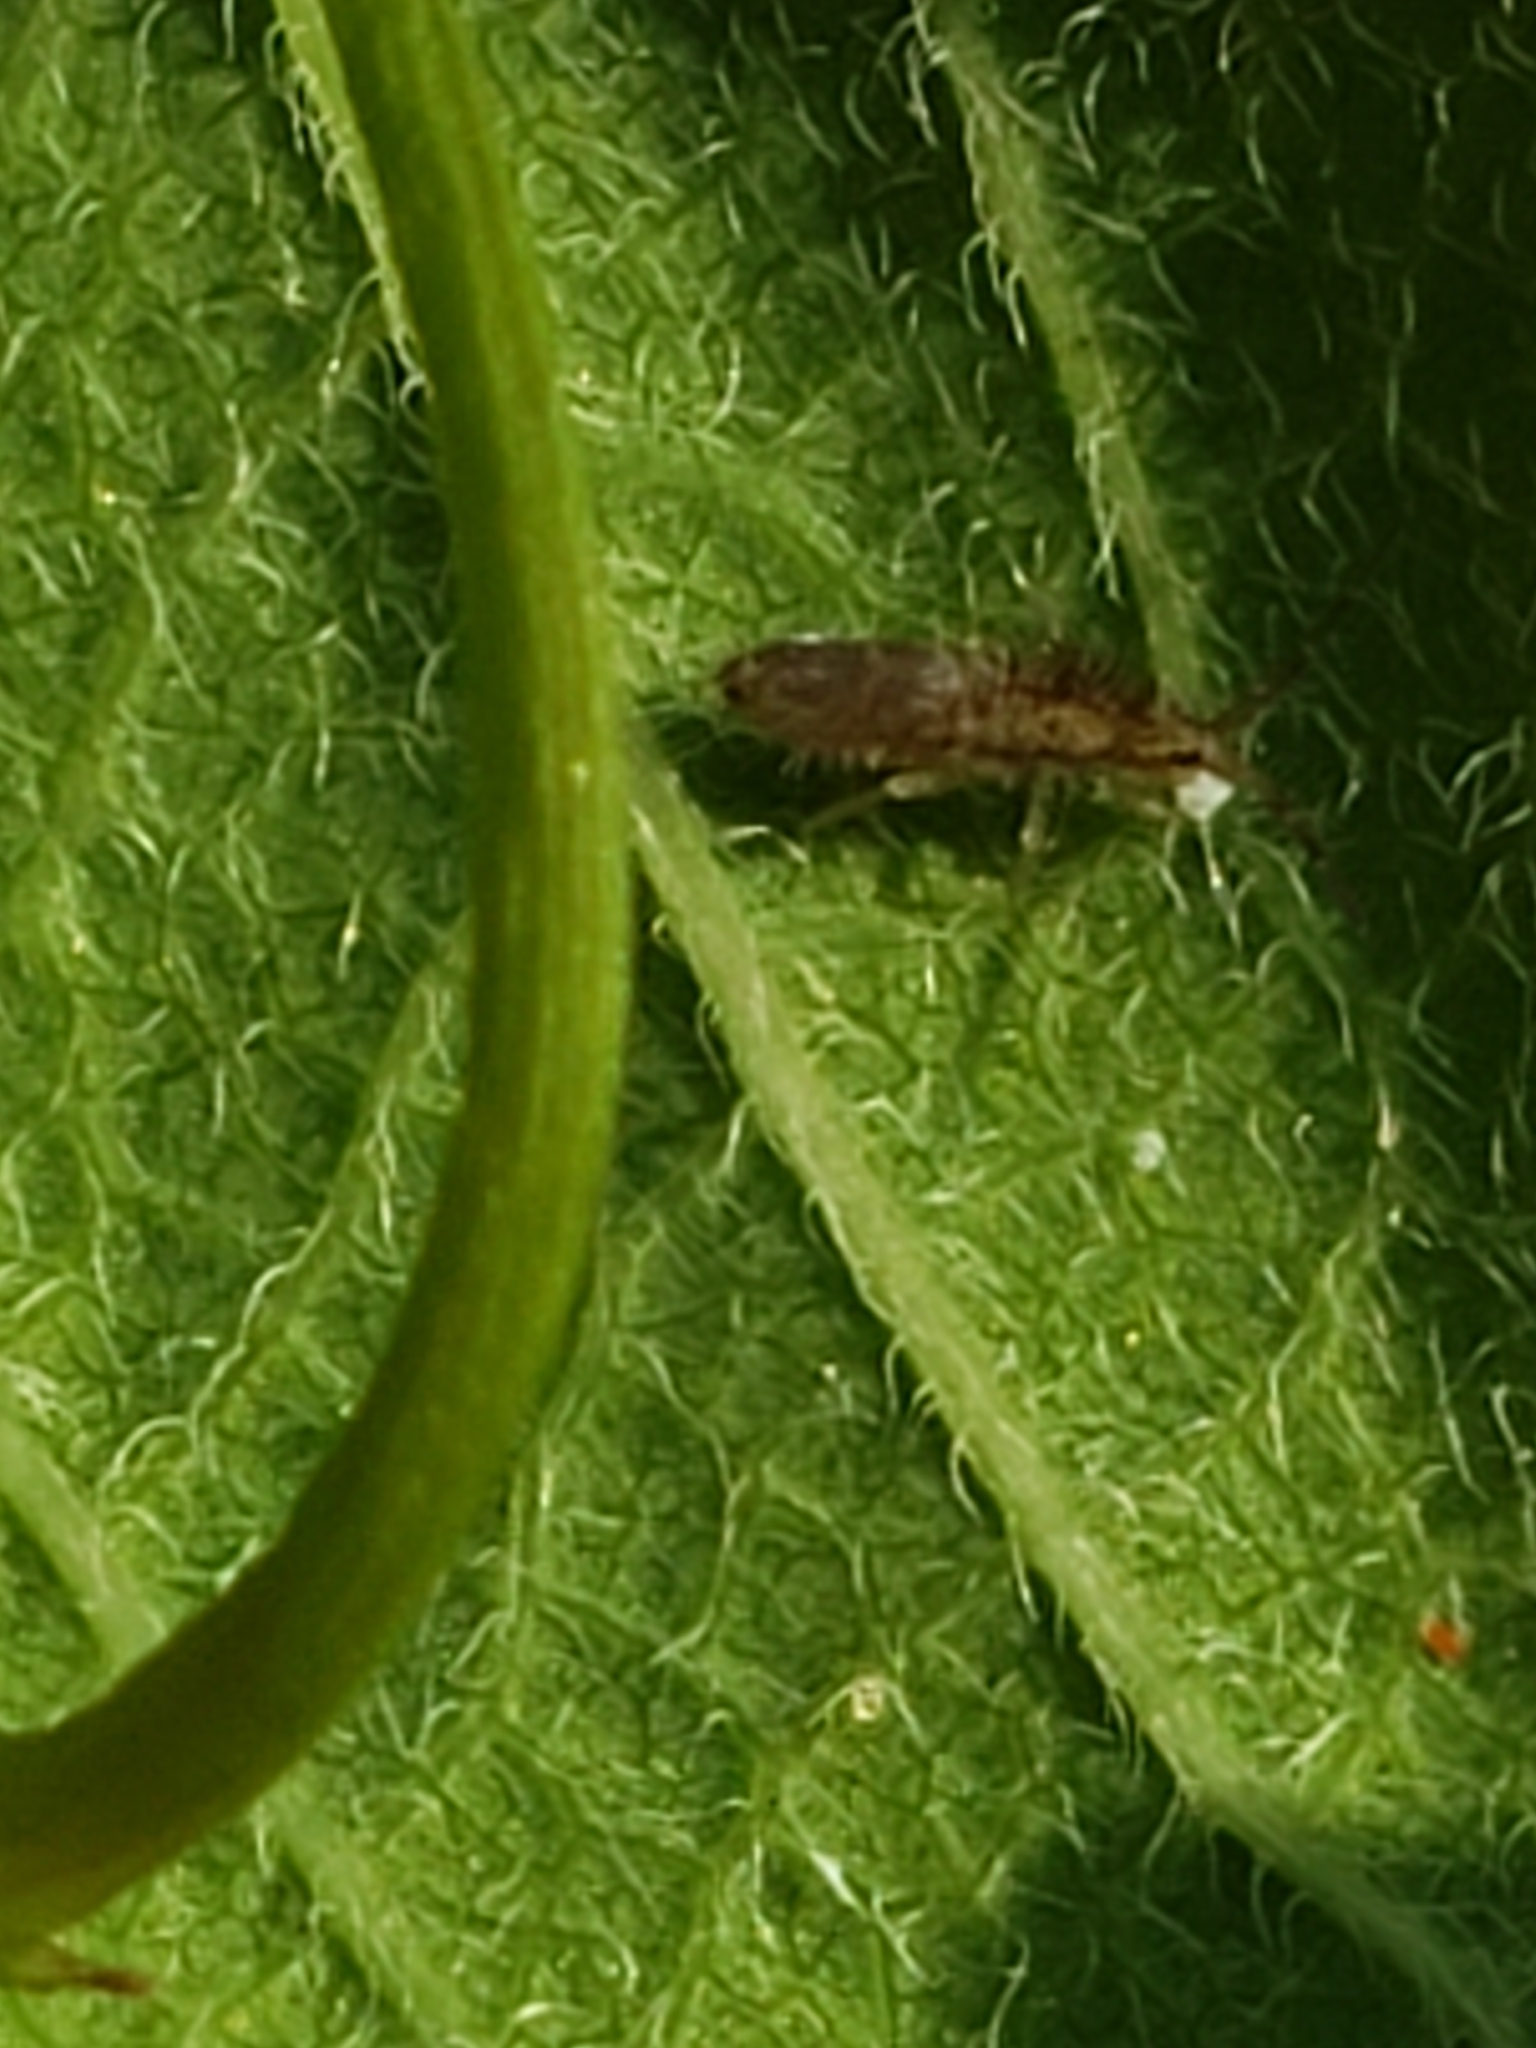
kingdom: Animalia
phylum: Arthropoda
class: Collembola
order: Entomobryomorpha
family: Entomobryidae
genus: Homidia
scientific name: Homidia socia
